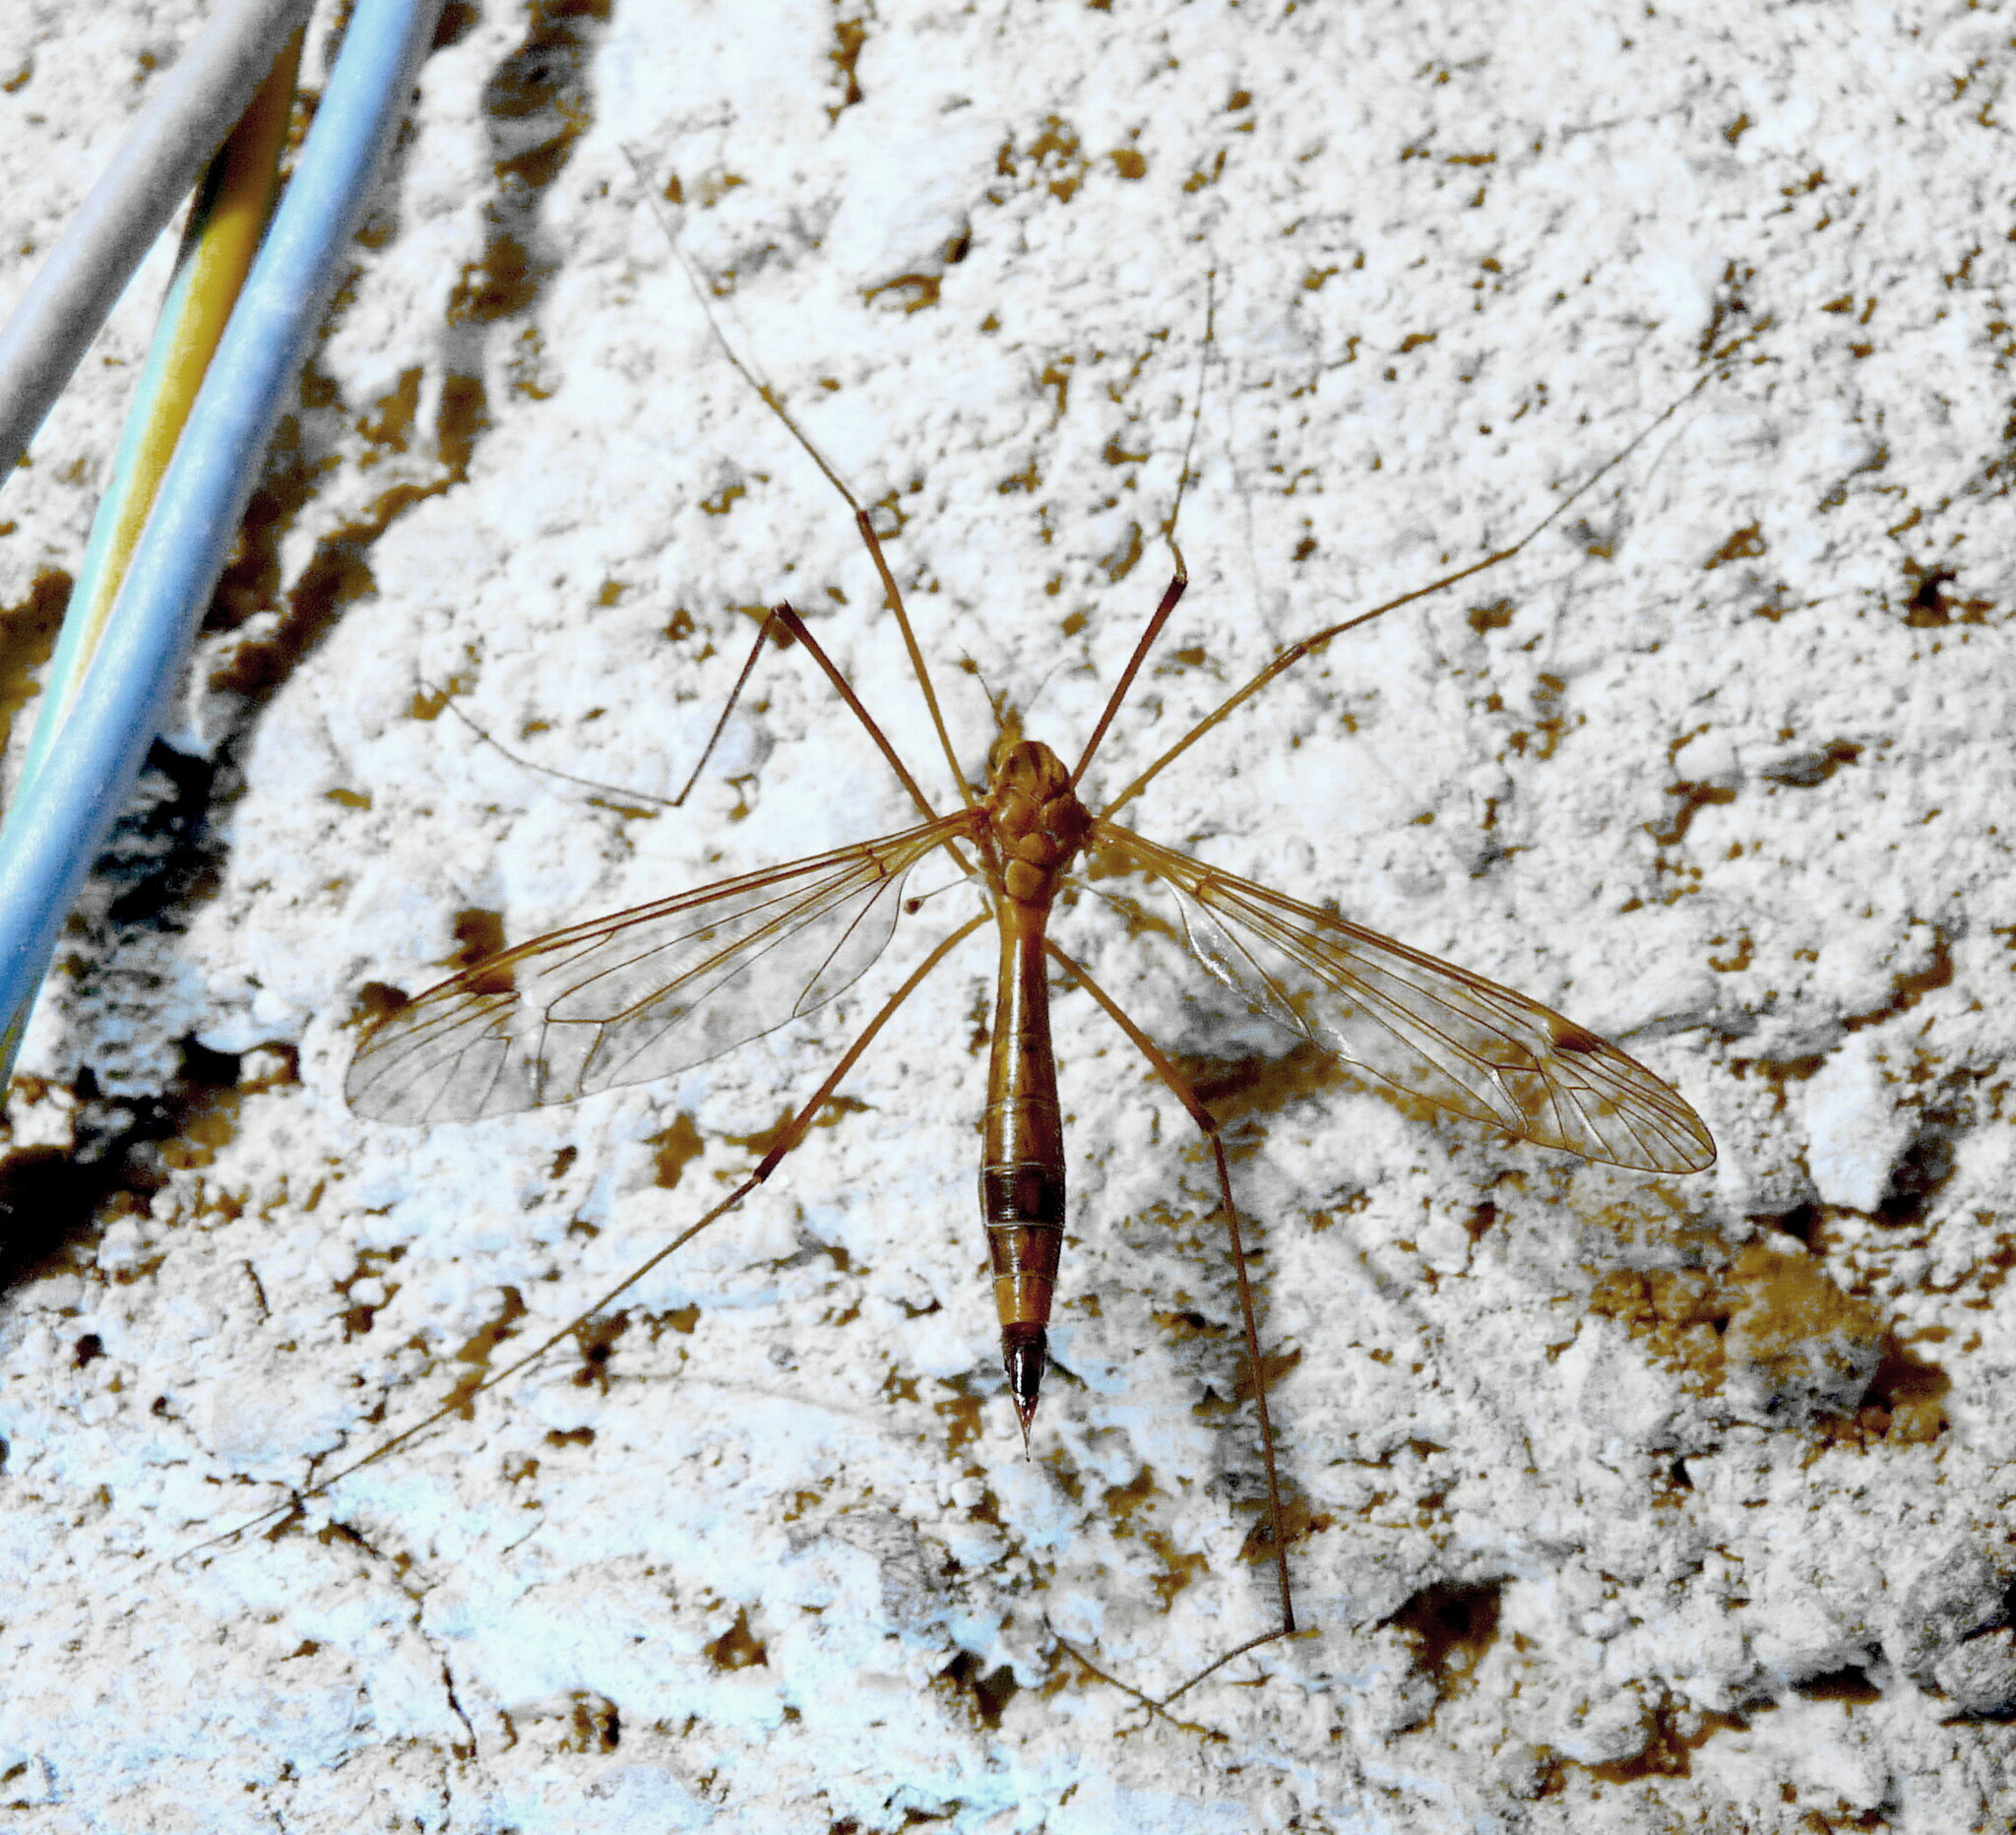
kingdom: Animalia
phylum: Arthropoda
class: Insecta
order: Diptera
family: Tipulidae
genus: Tipula
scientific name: Tipula lunata
